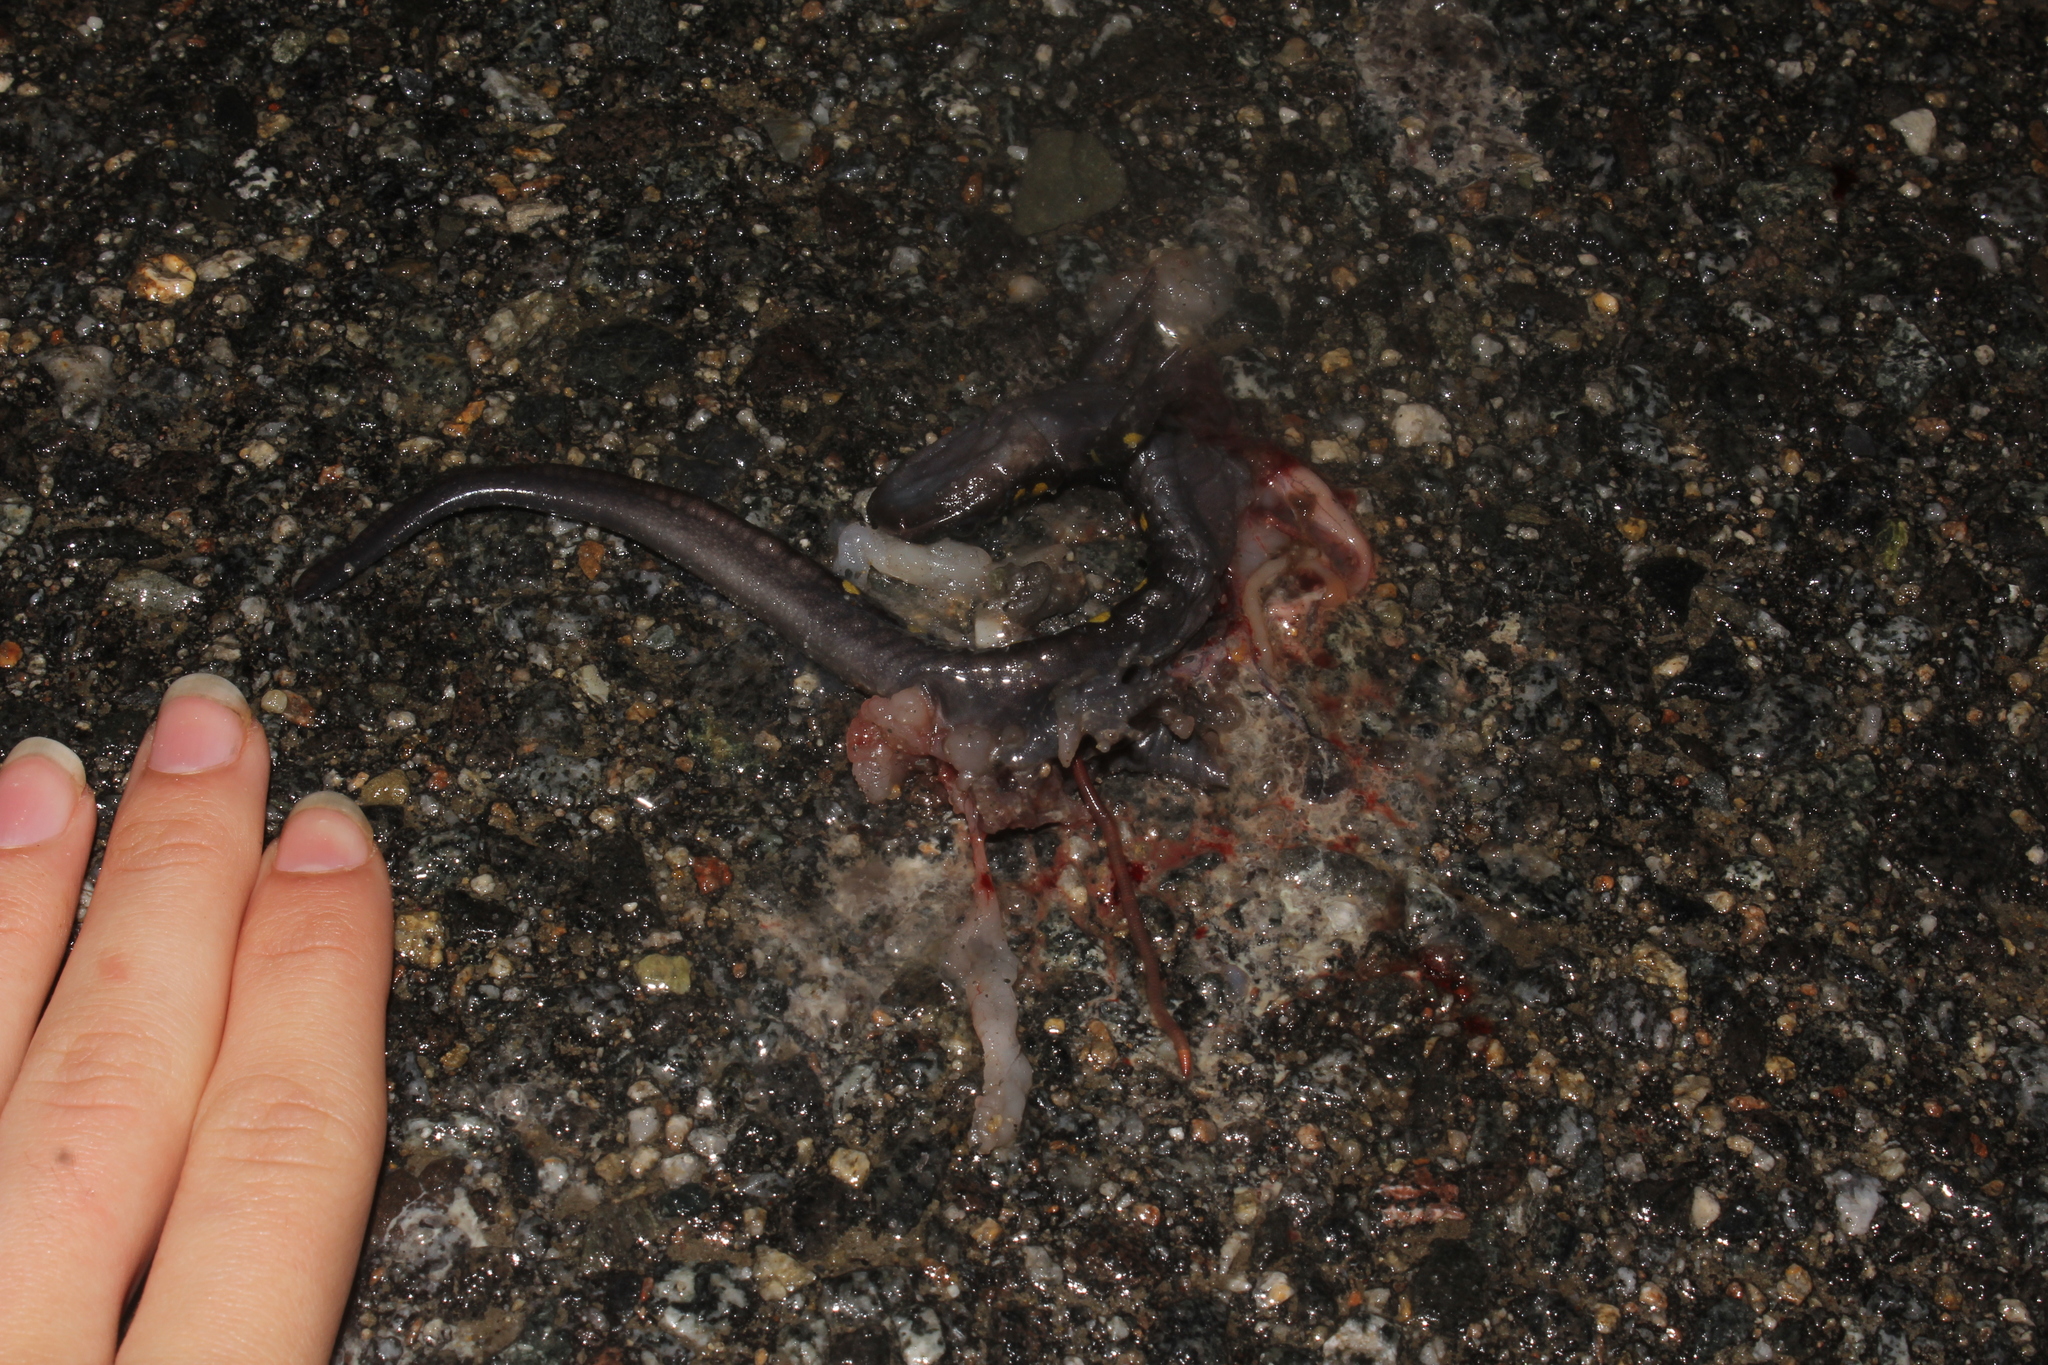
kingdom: Animalia
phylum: Chordata
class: Amphibia
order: Caudata
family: Ambystomatidae
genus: Ambystoma
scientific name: Ambystoma maculatum
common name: Spotted salamander
